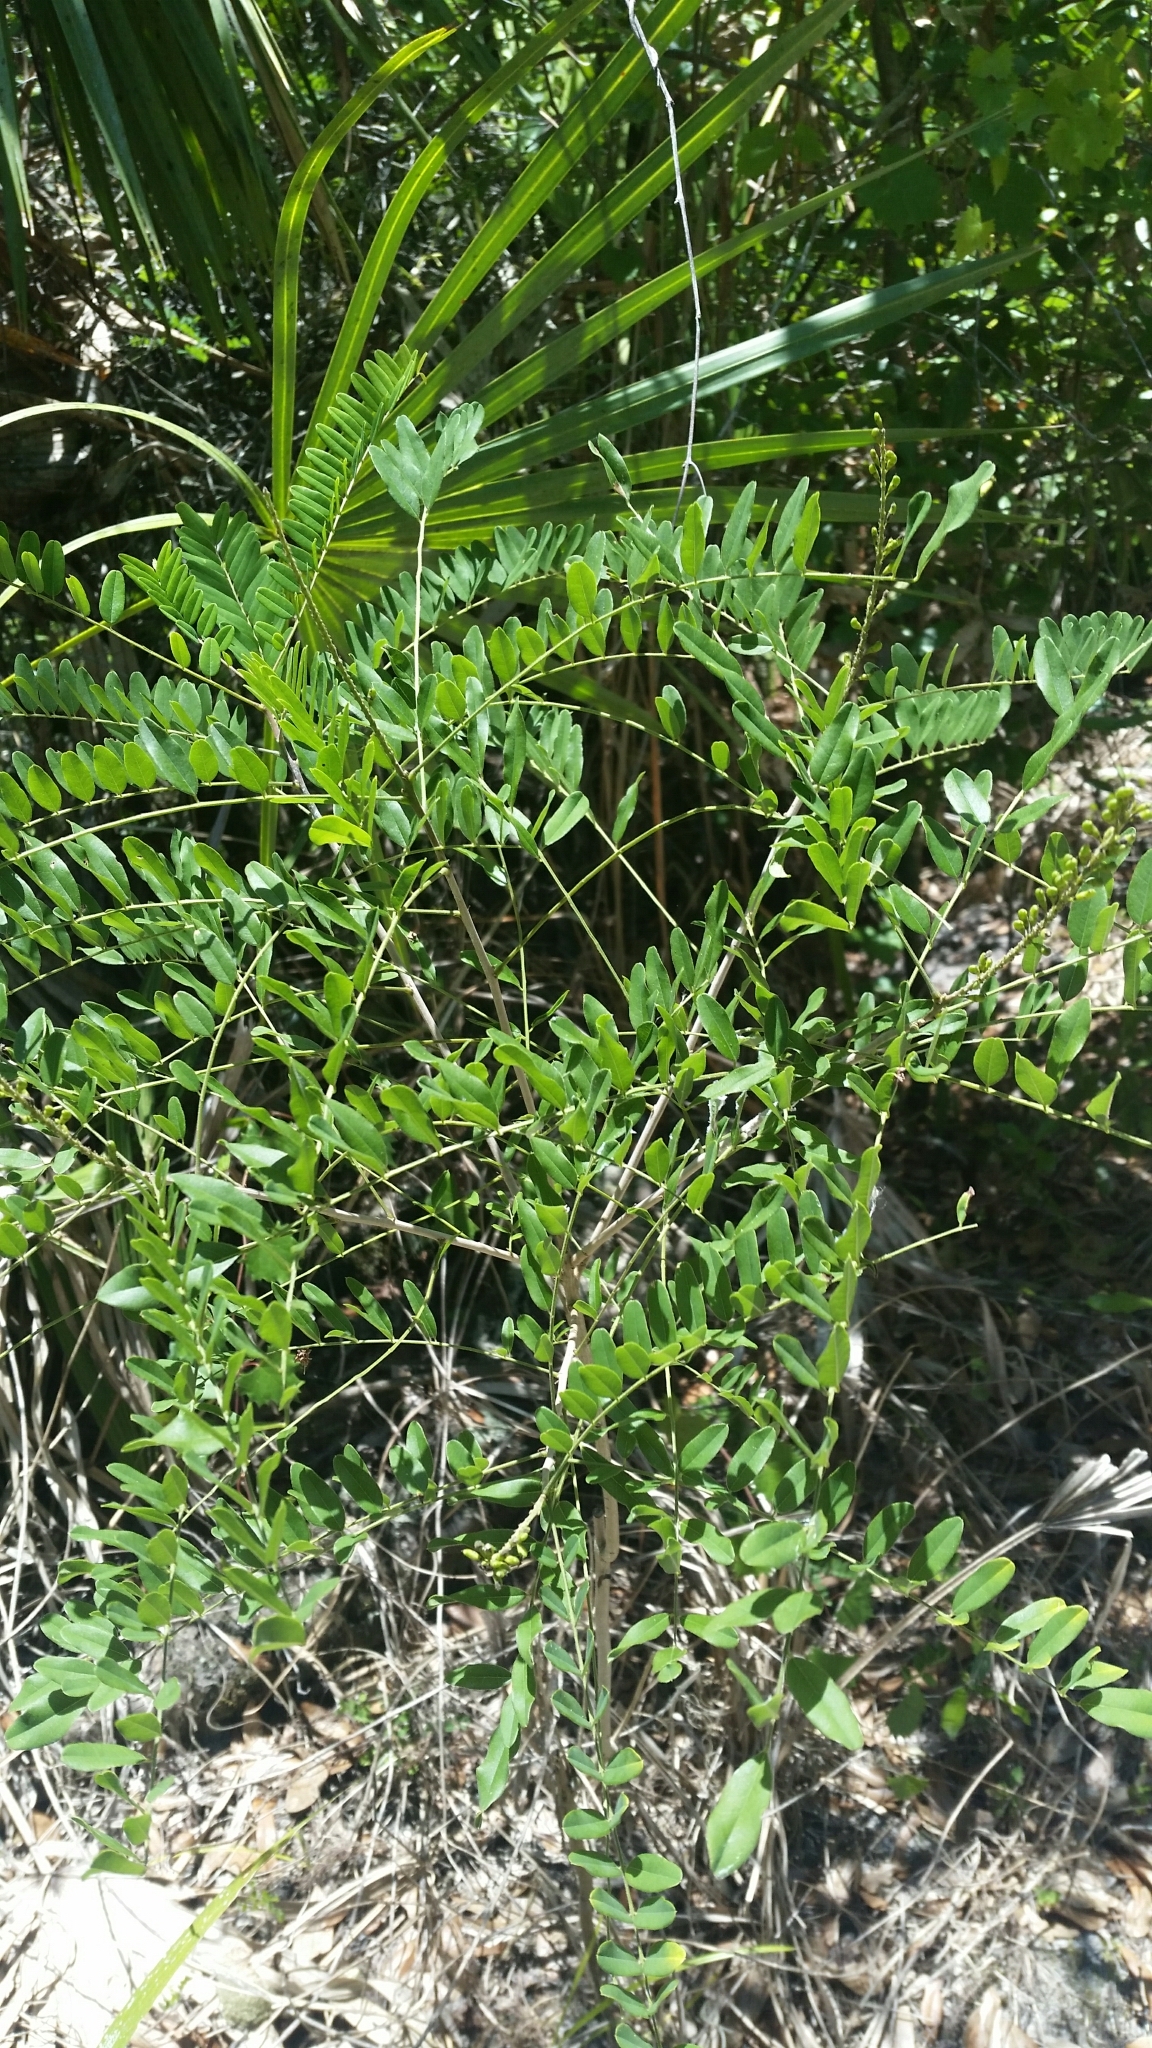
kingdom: Plantae
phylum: Tracheophyta
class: Magnoliopsida
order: Fabales
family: Fabaceae
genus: Amorpha
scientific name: Amorpha fruticosa
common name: False indigo
